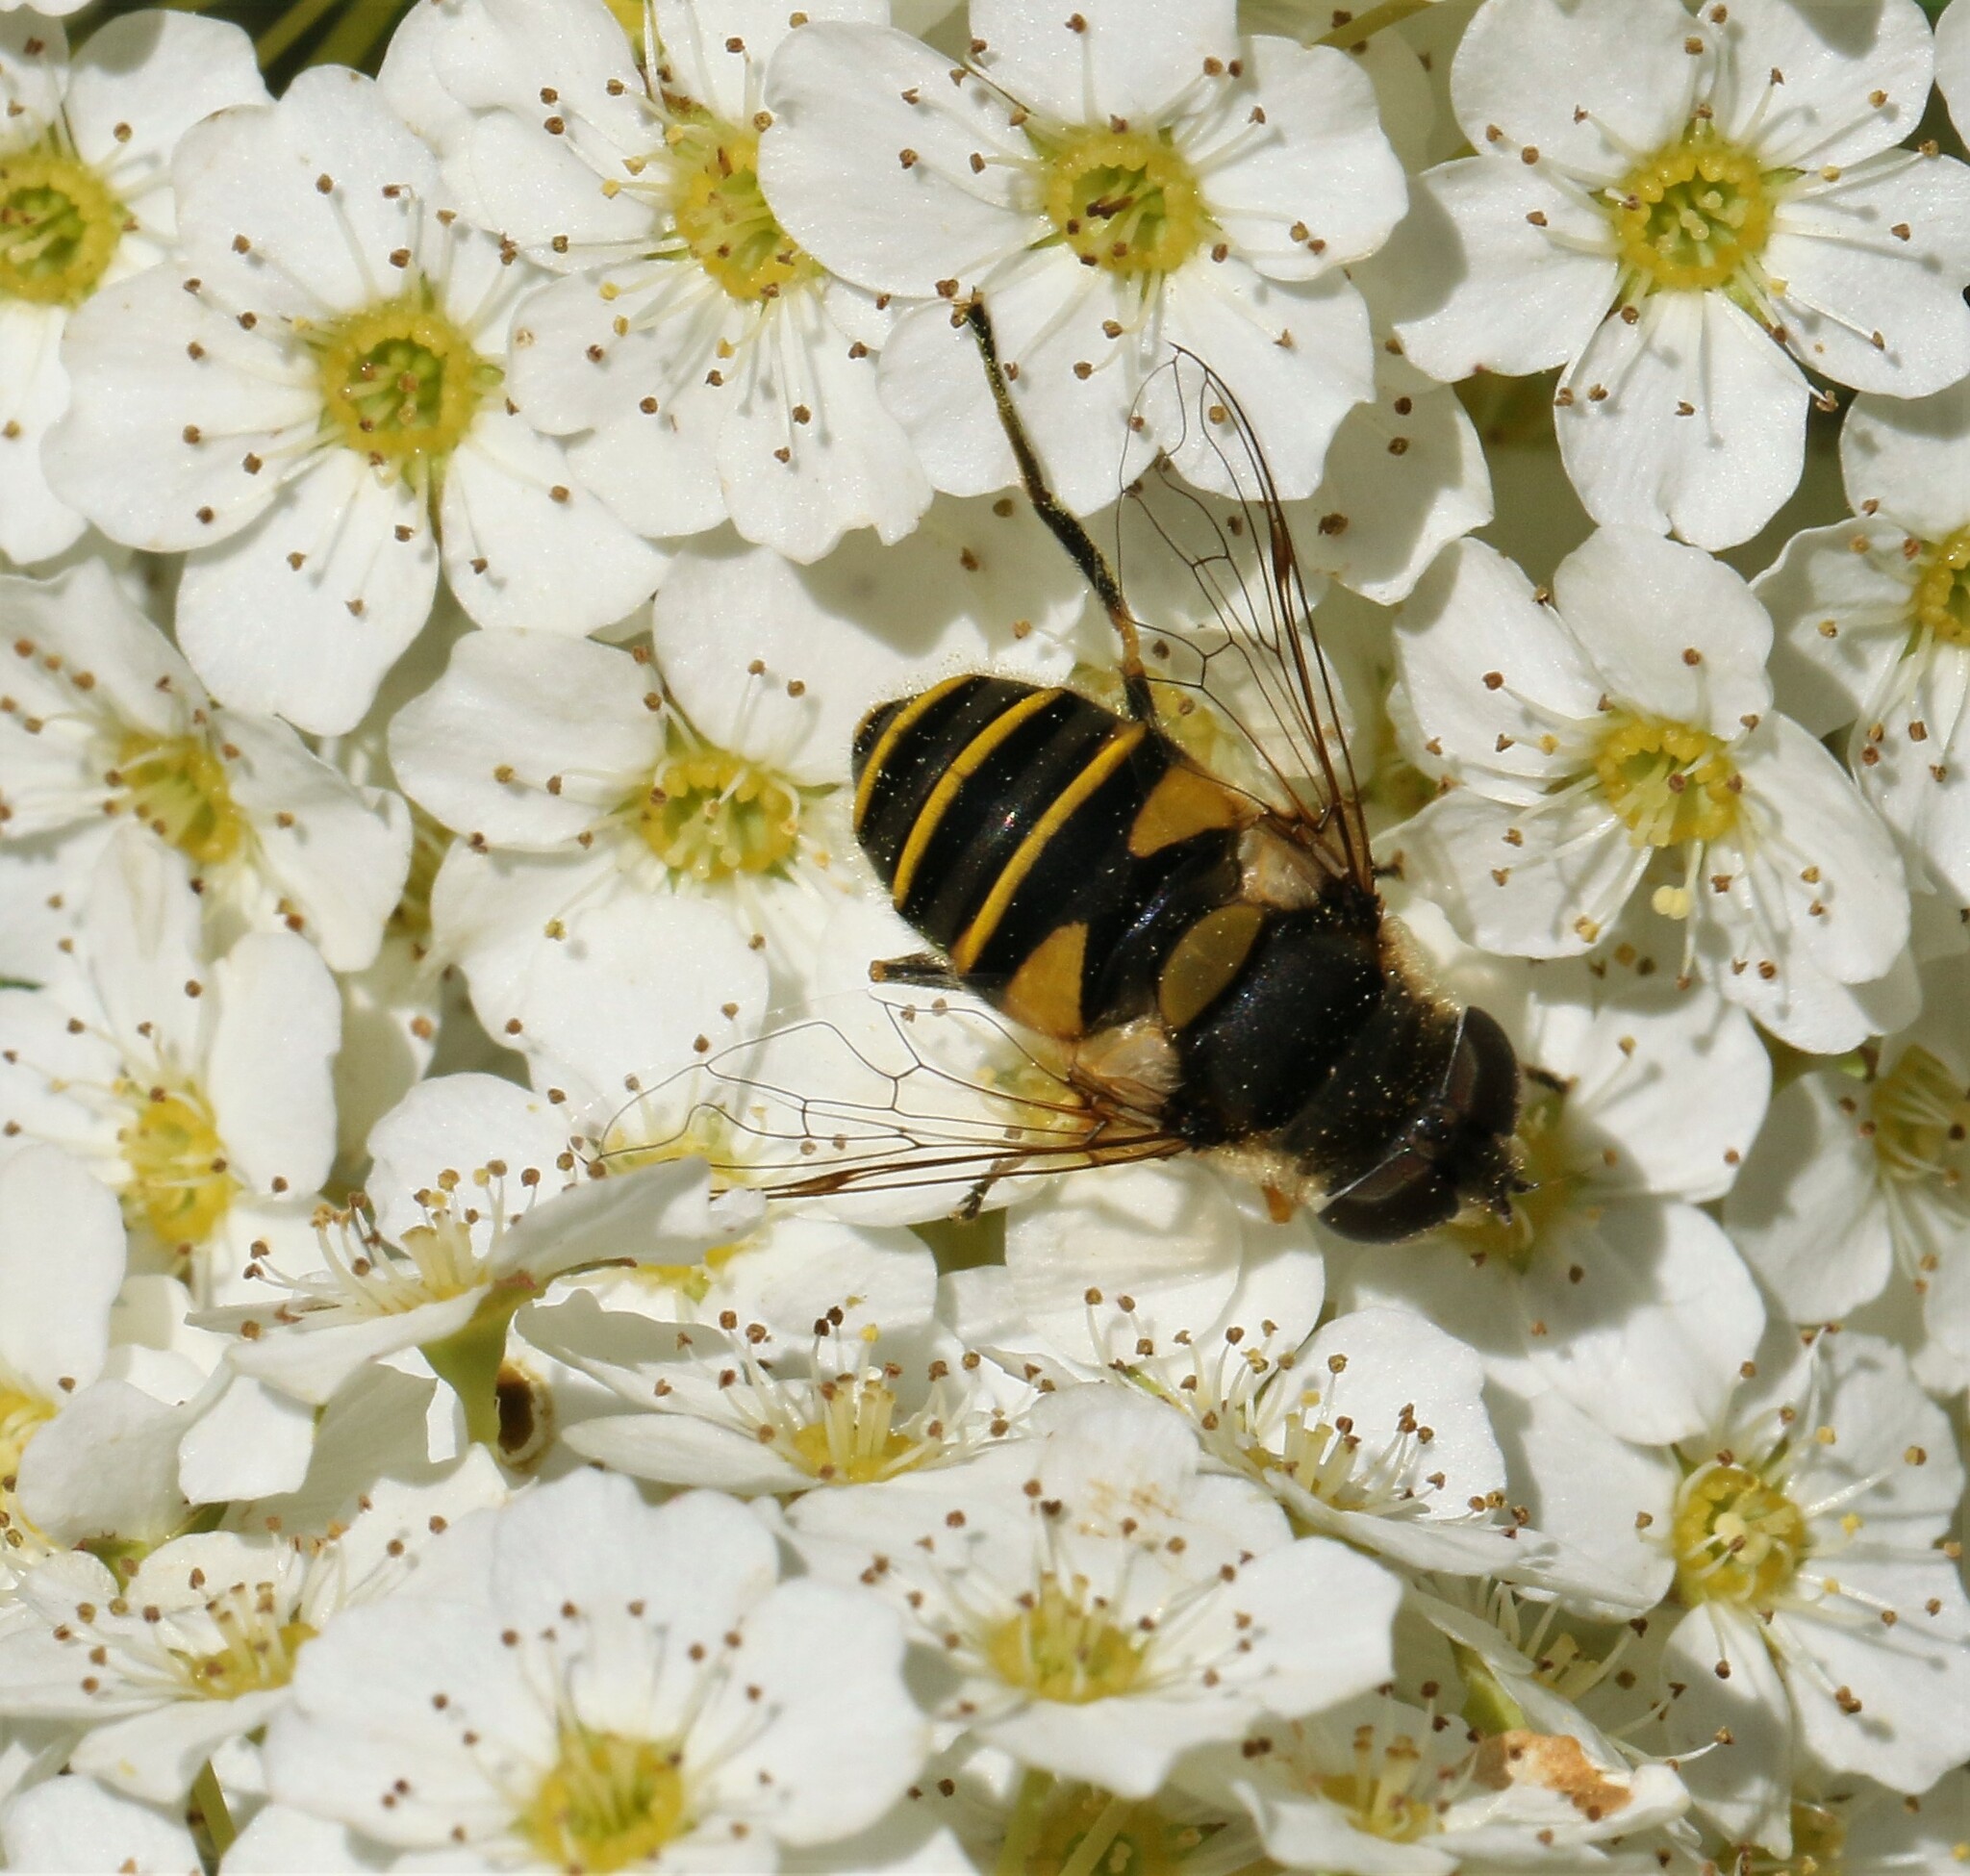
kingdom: Animalia
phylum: Arthropoda
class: Insecta
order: Diptera
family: Syrphidae
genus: Eristalis
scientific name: Eristalis transversa
